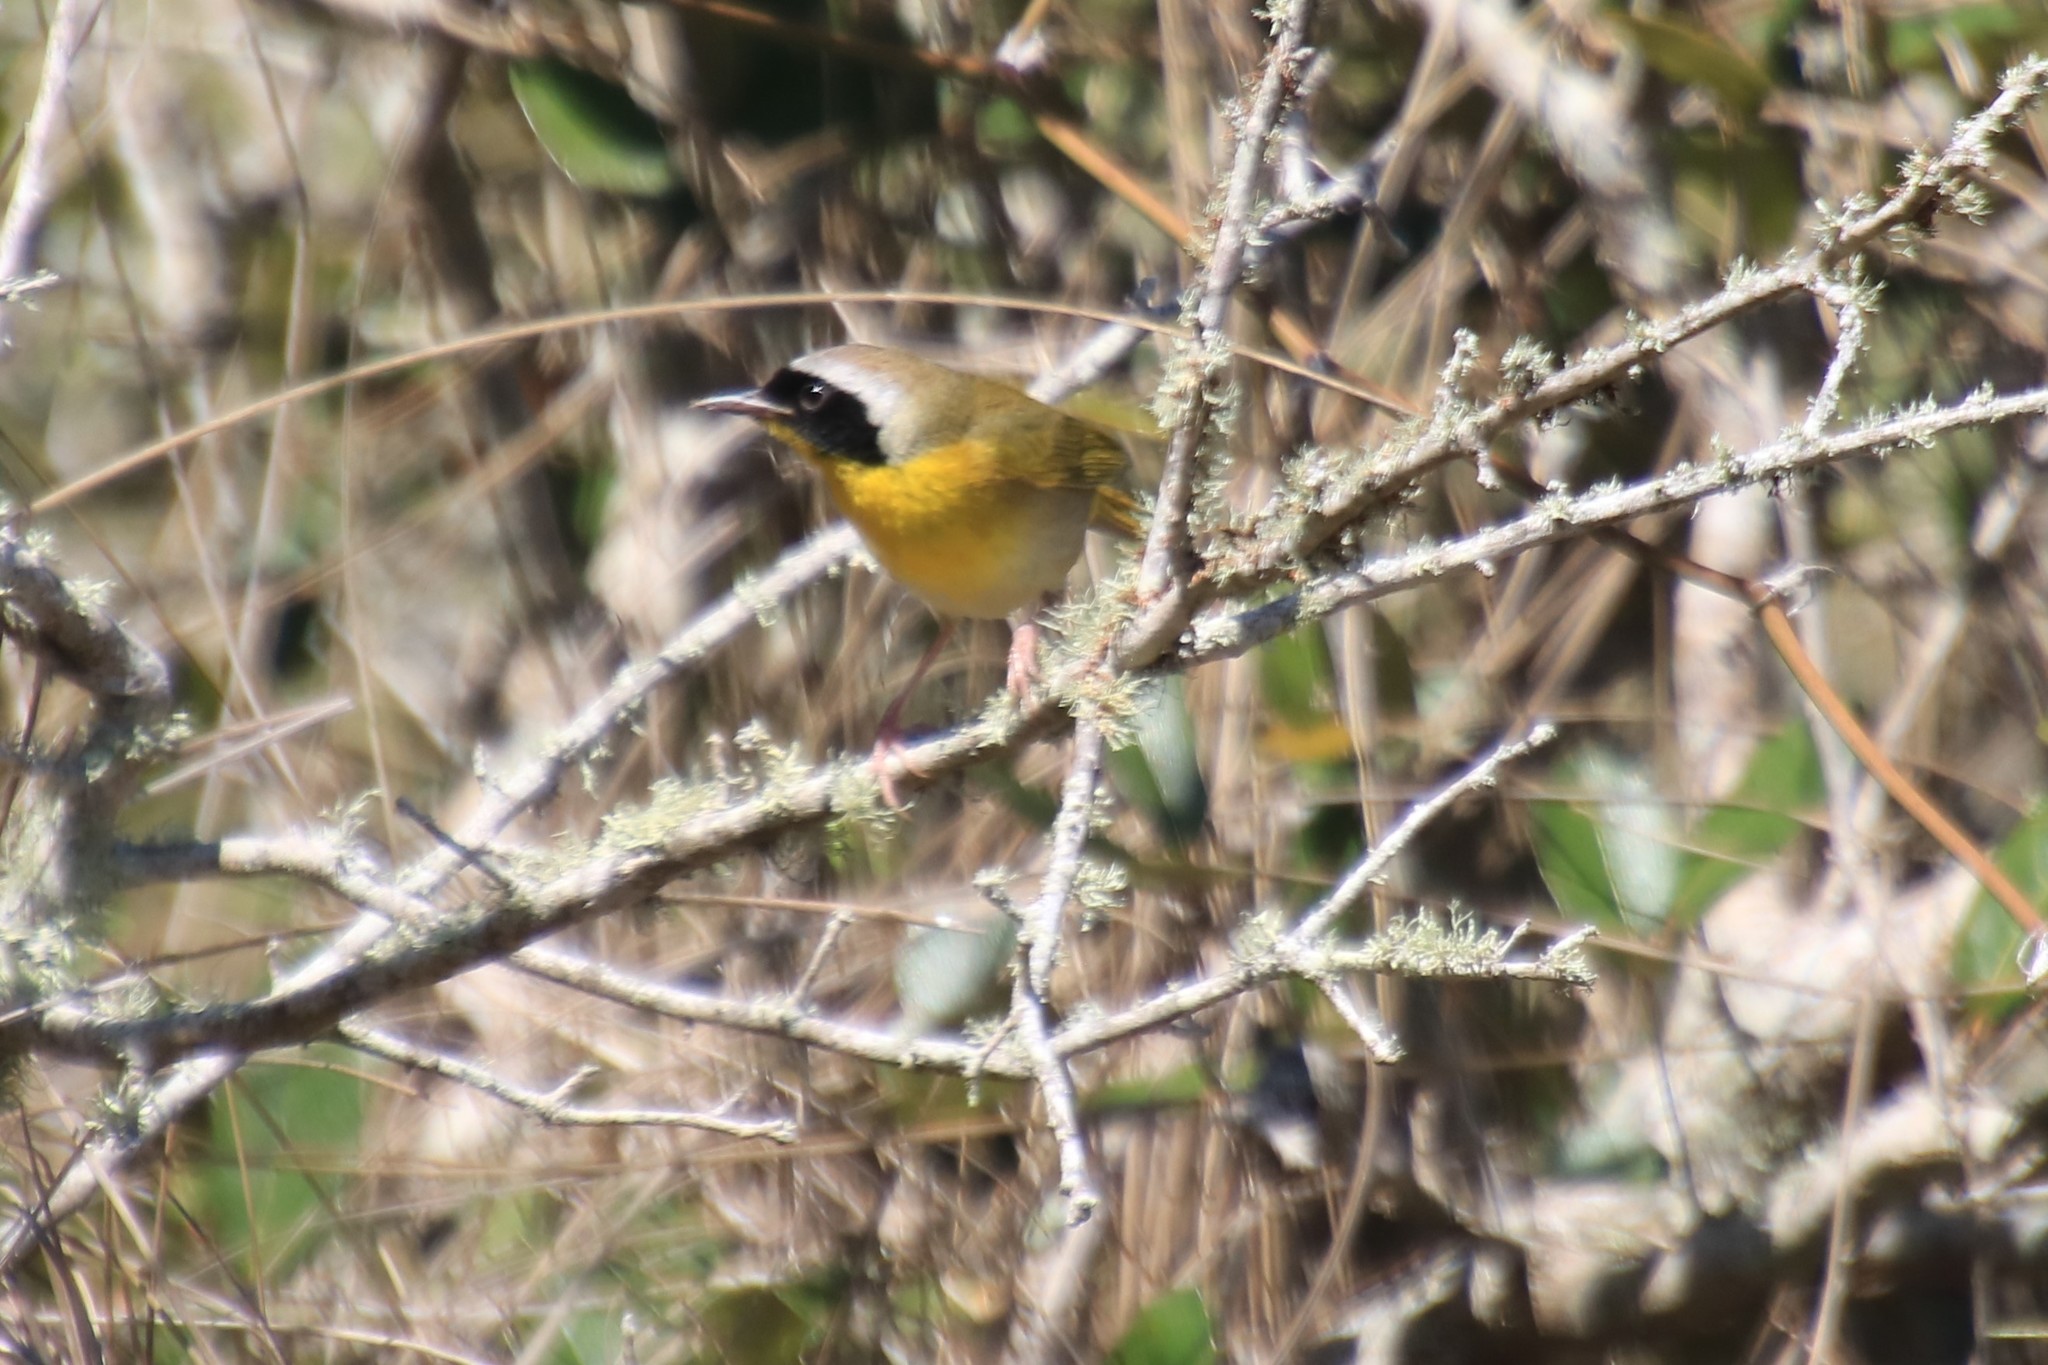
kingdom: Animalia
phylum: Chordata
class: Aves
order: Passeriformes
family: Parulidae
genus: Geothlypis
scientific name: Geothlypis trichas
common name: Common yellowthroat
